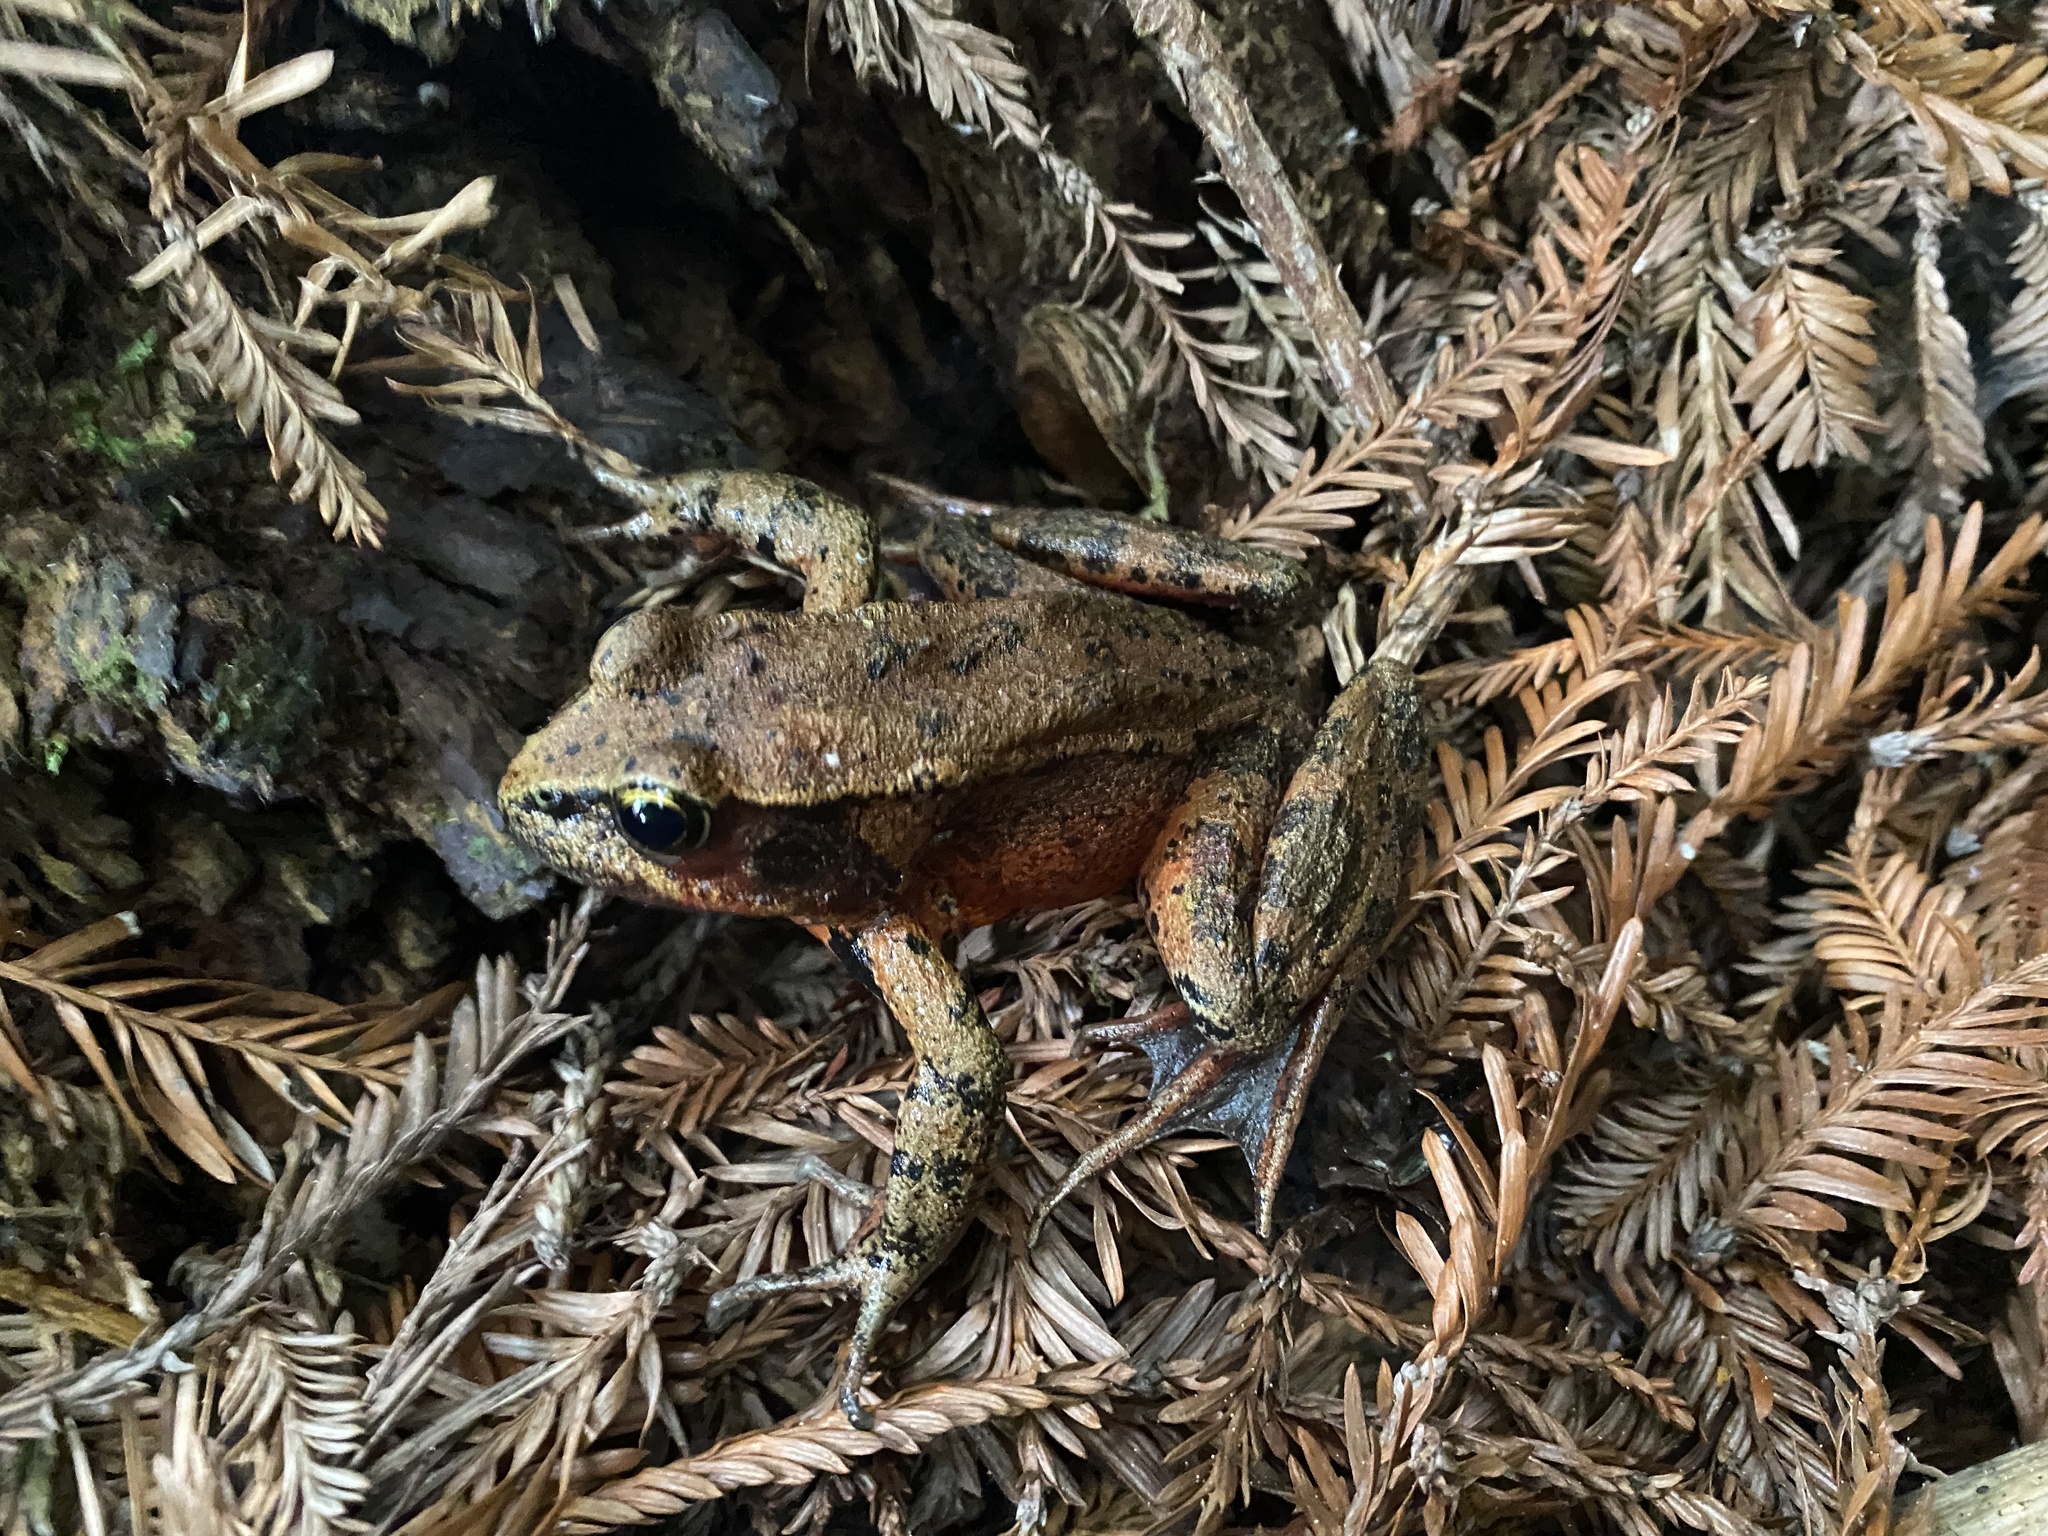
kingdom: Animalia
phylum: Chordata
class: Amphibia
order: Anura
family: Ranidae
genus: Rana
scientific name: Rana aurora
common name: Red-legged frog
